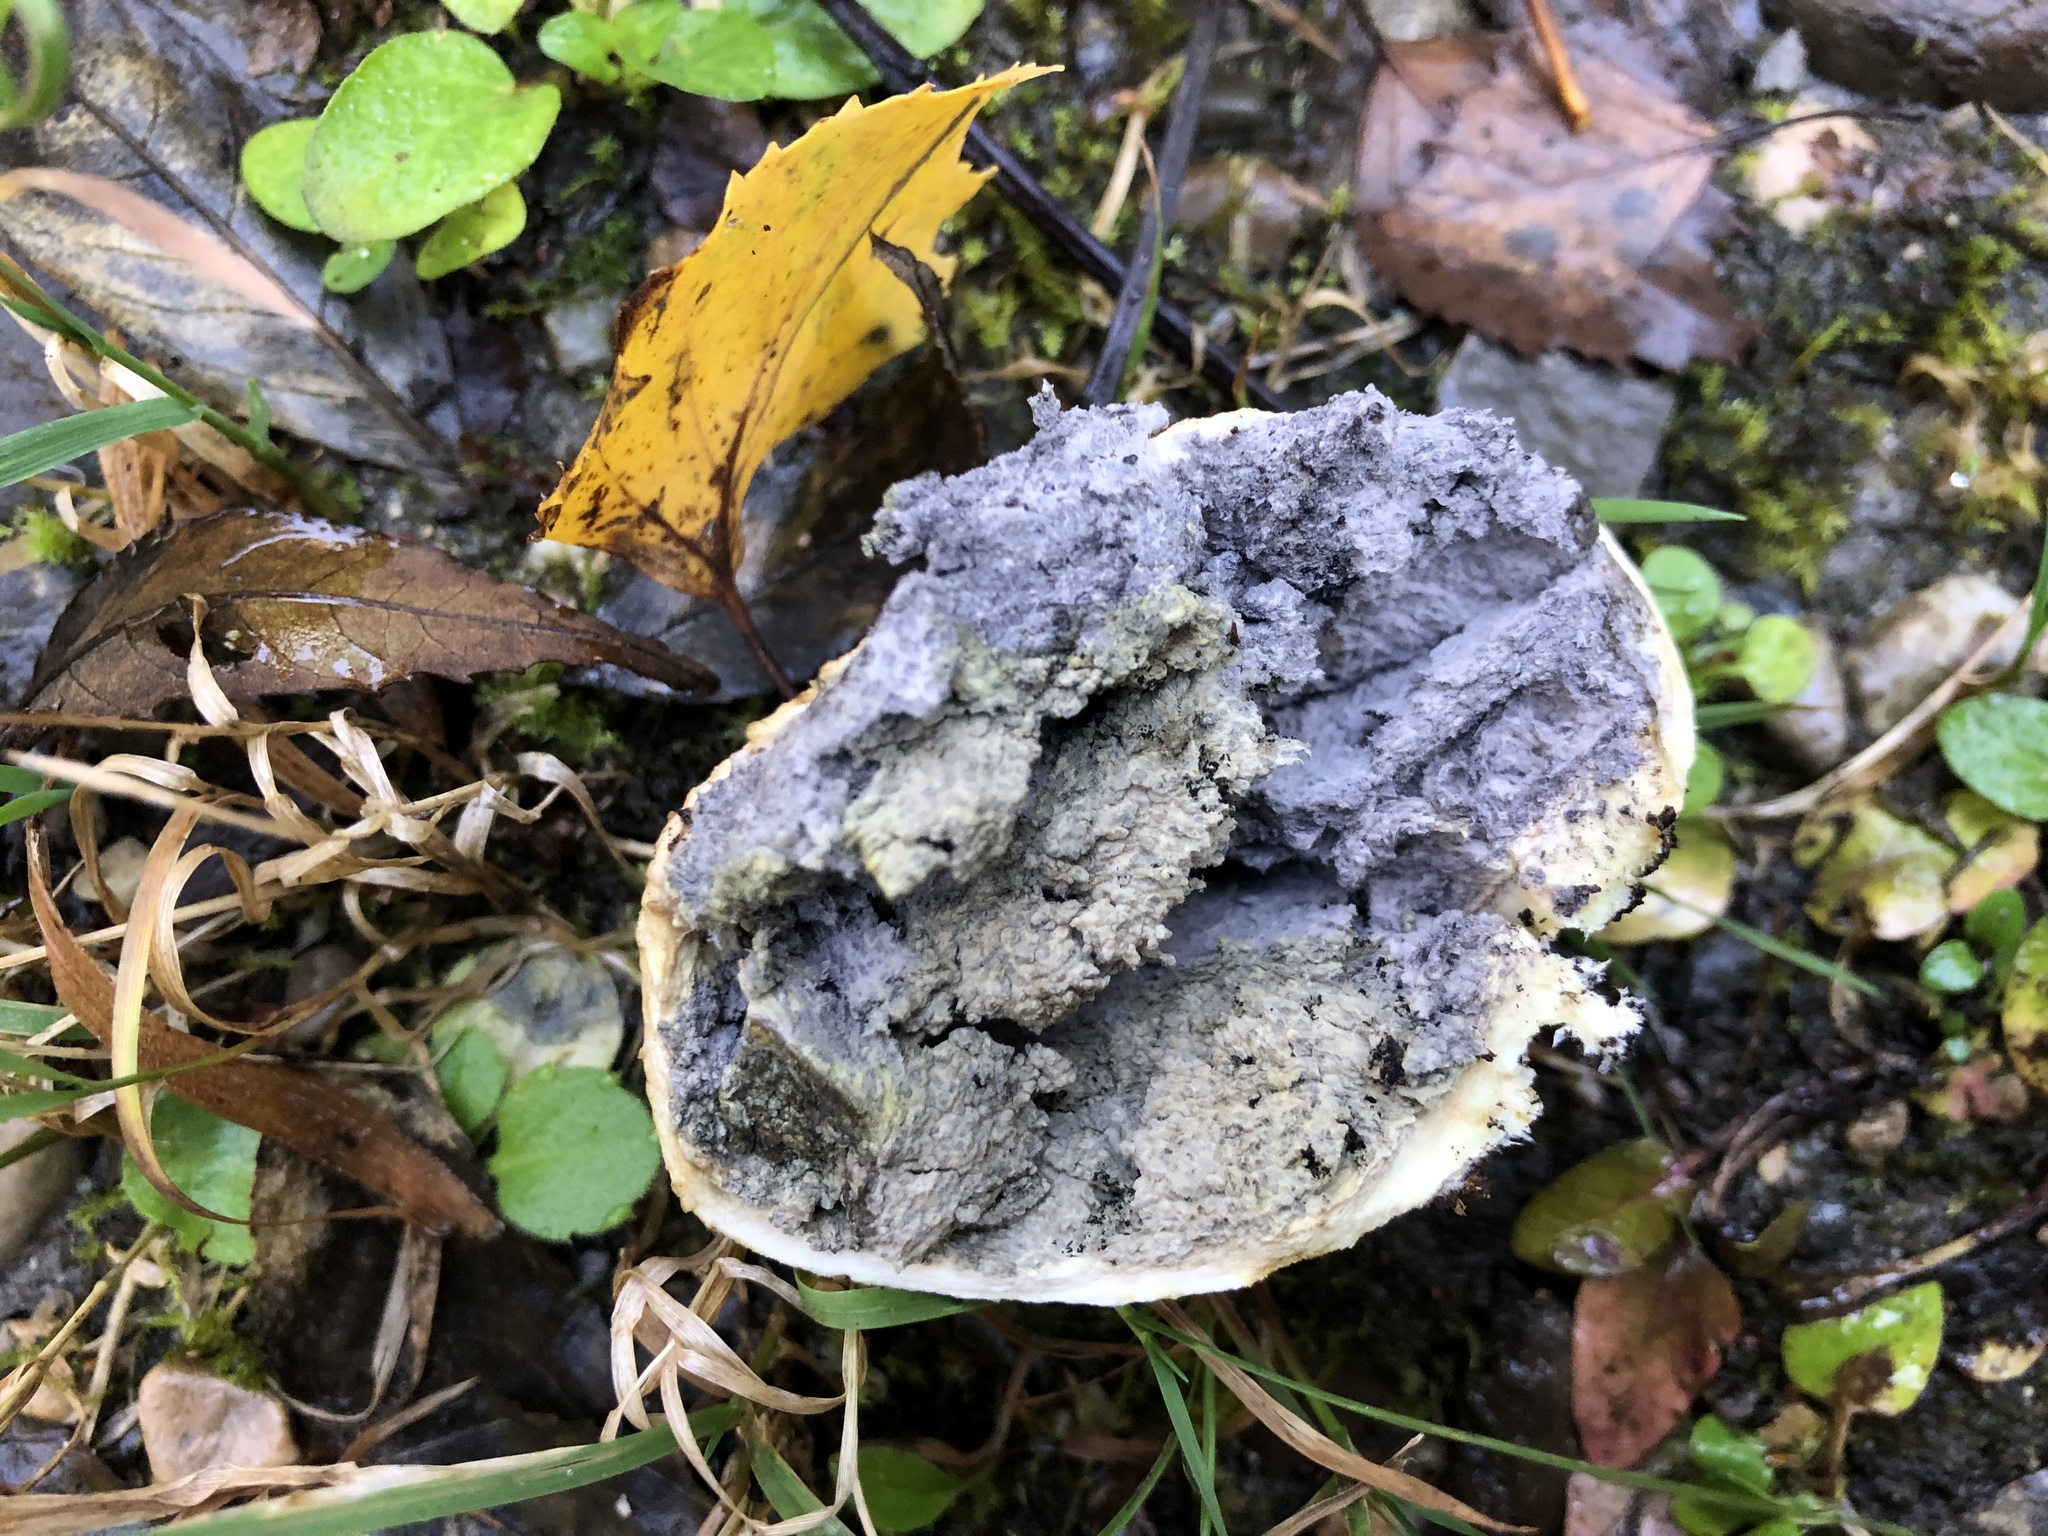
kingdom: Fungi
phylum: Basidiomycota
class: Agaricomycetes
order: Boletales
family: Sclerodermataceae
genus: Scleroderma
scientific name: Scleroderma citrinum
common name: Common earthball
